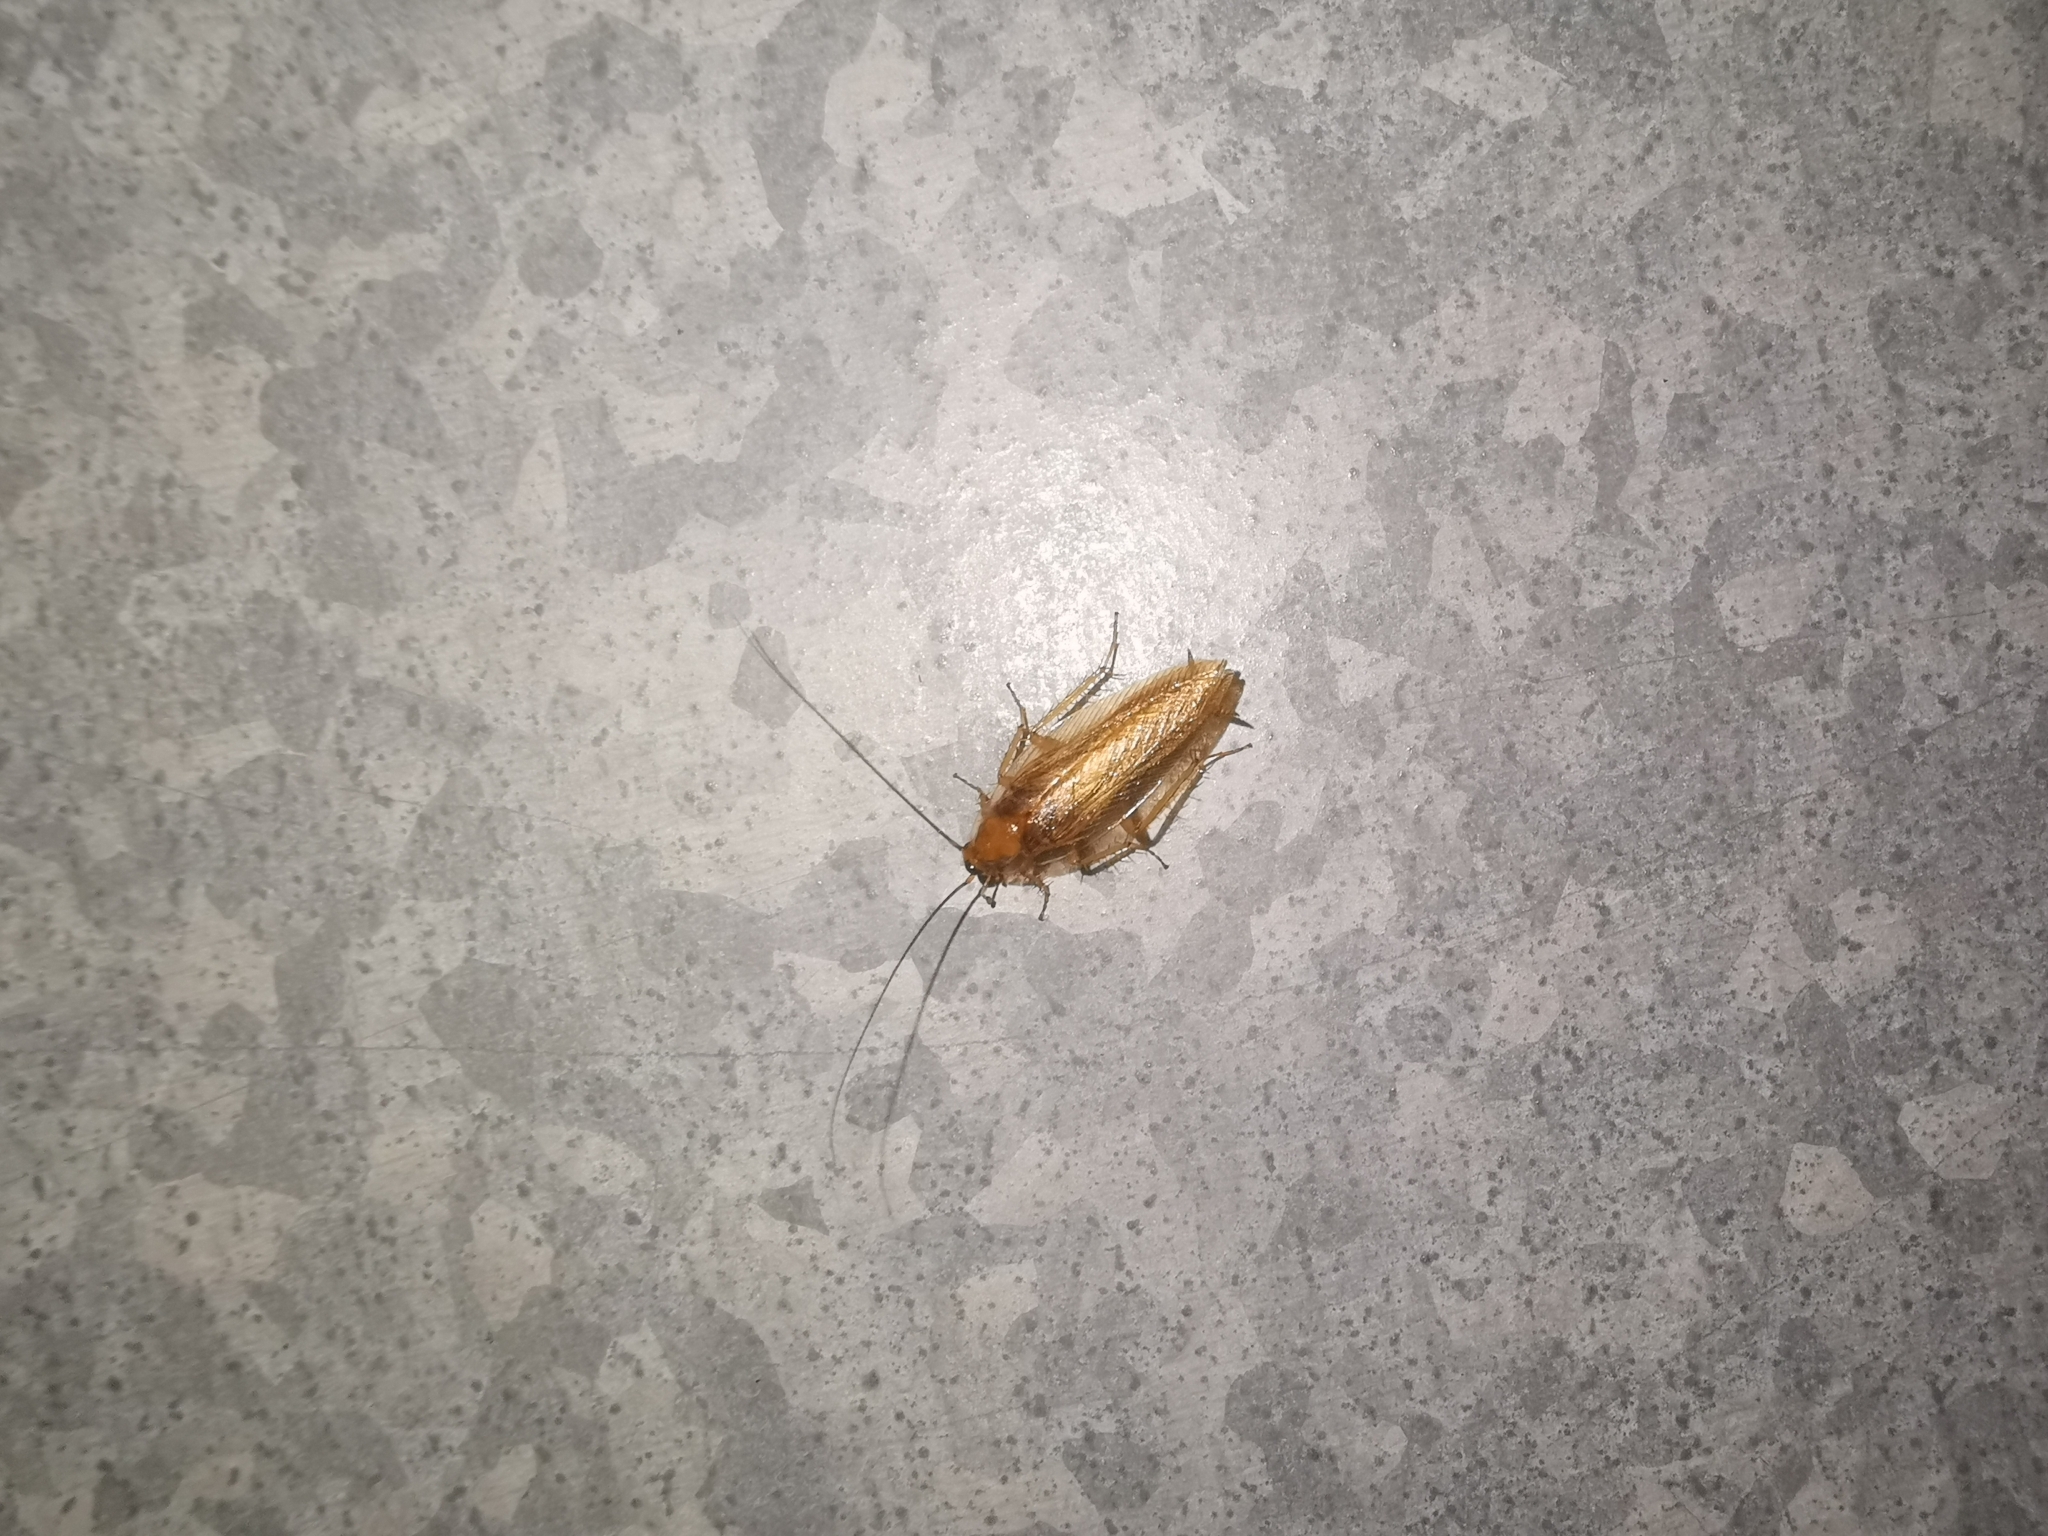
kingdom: Animalia
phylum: Arthropoda
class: Insecta
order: Blattodea
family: Ectobiidae
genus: Ectobius
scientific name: Ectobius vittiventris
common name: Garden cockroach
